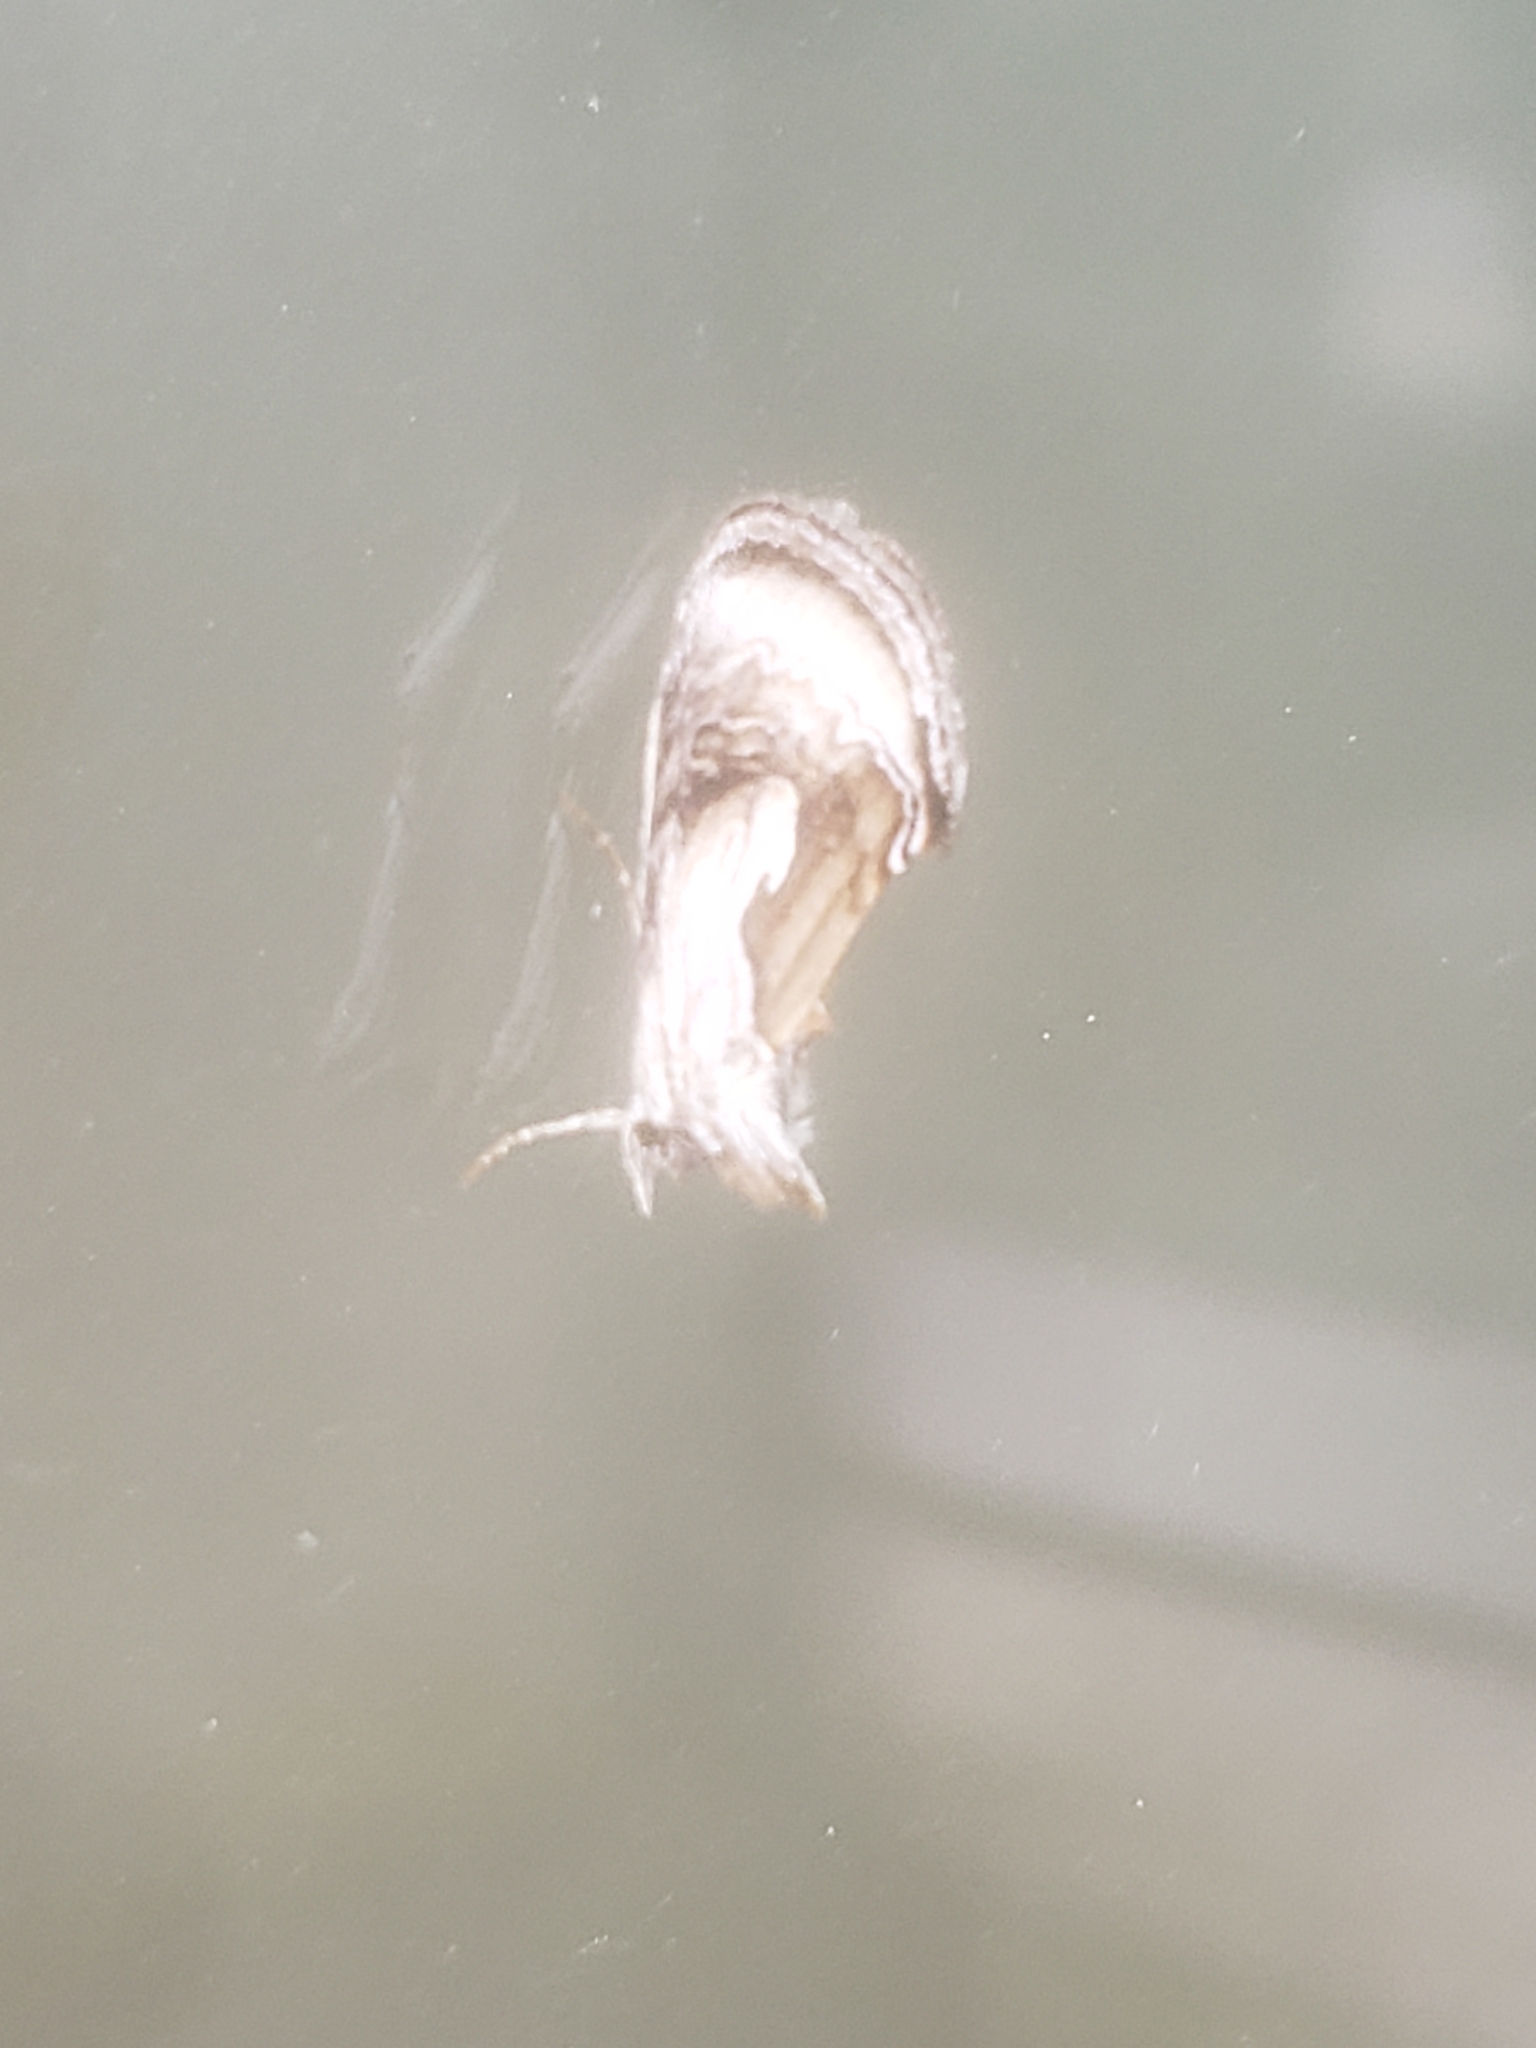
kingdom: Animalia
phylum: Arthropoda
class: Insecta
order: Lepidoptera
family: Noctuidae
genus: Chrysanympha
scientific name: Chrysanympha formosa
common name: Formosa looper moth
